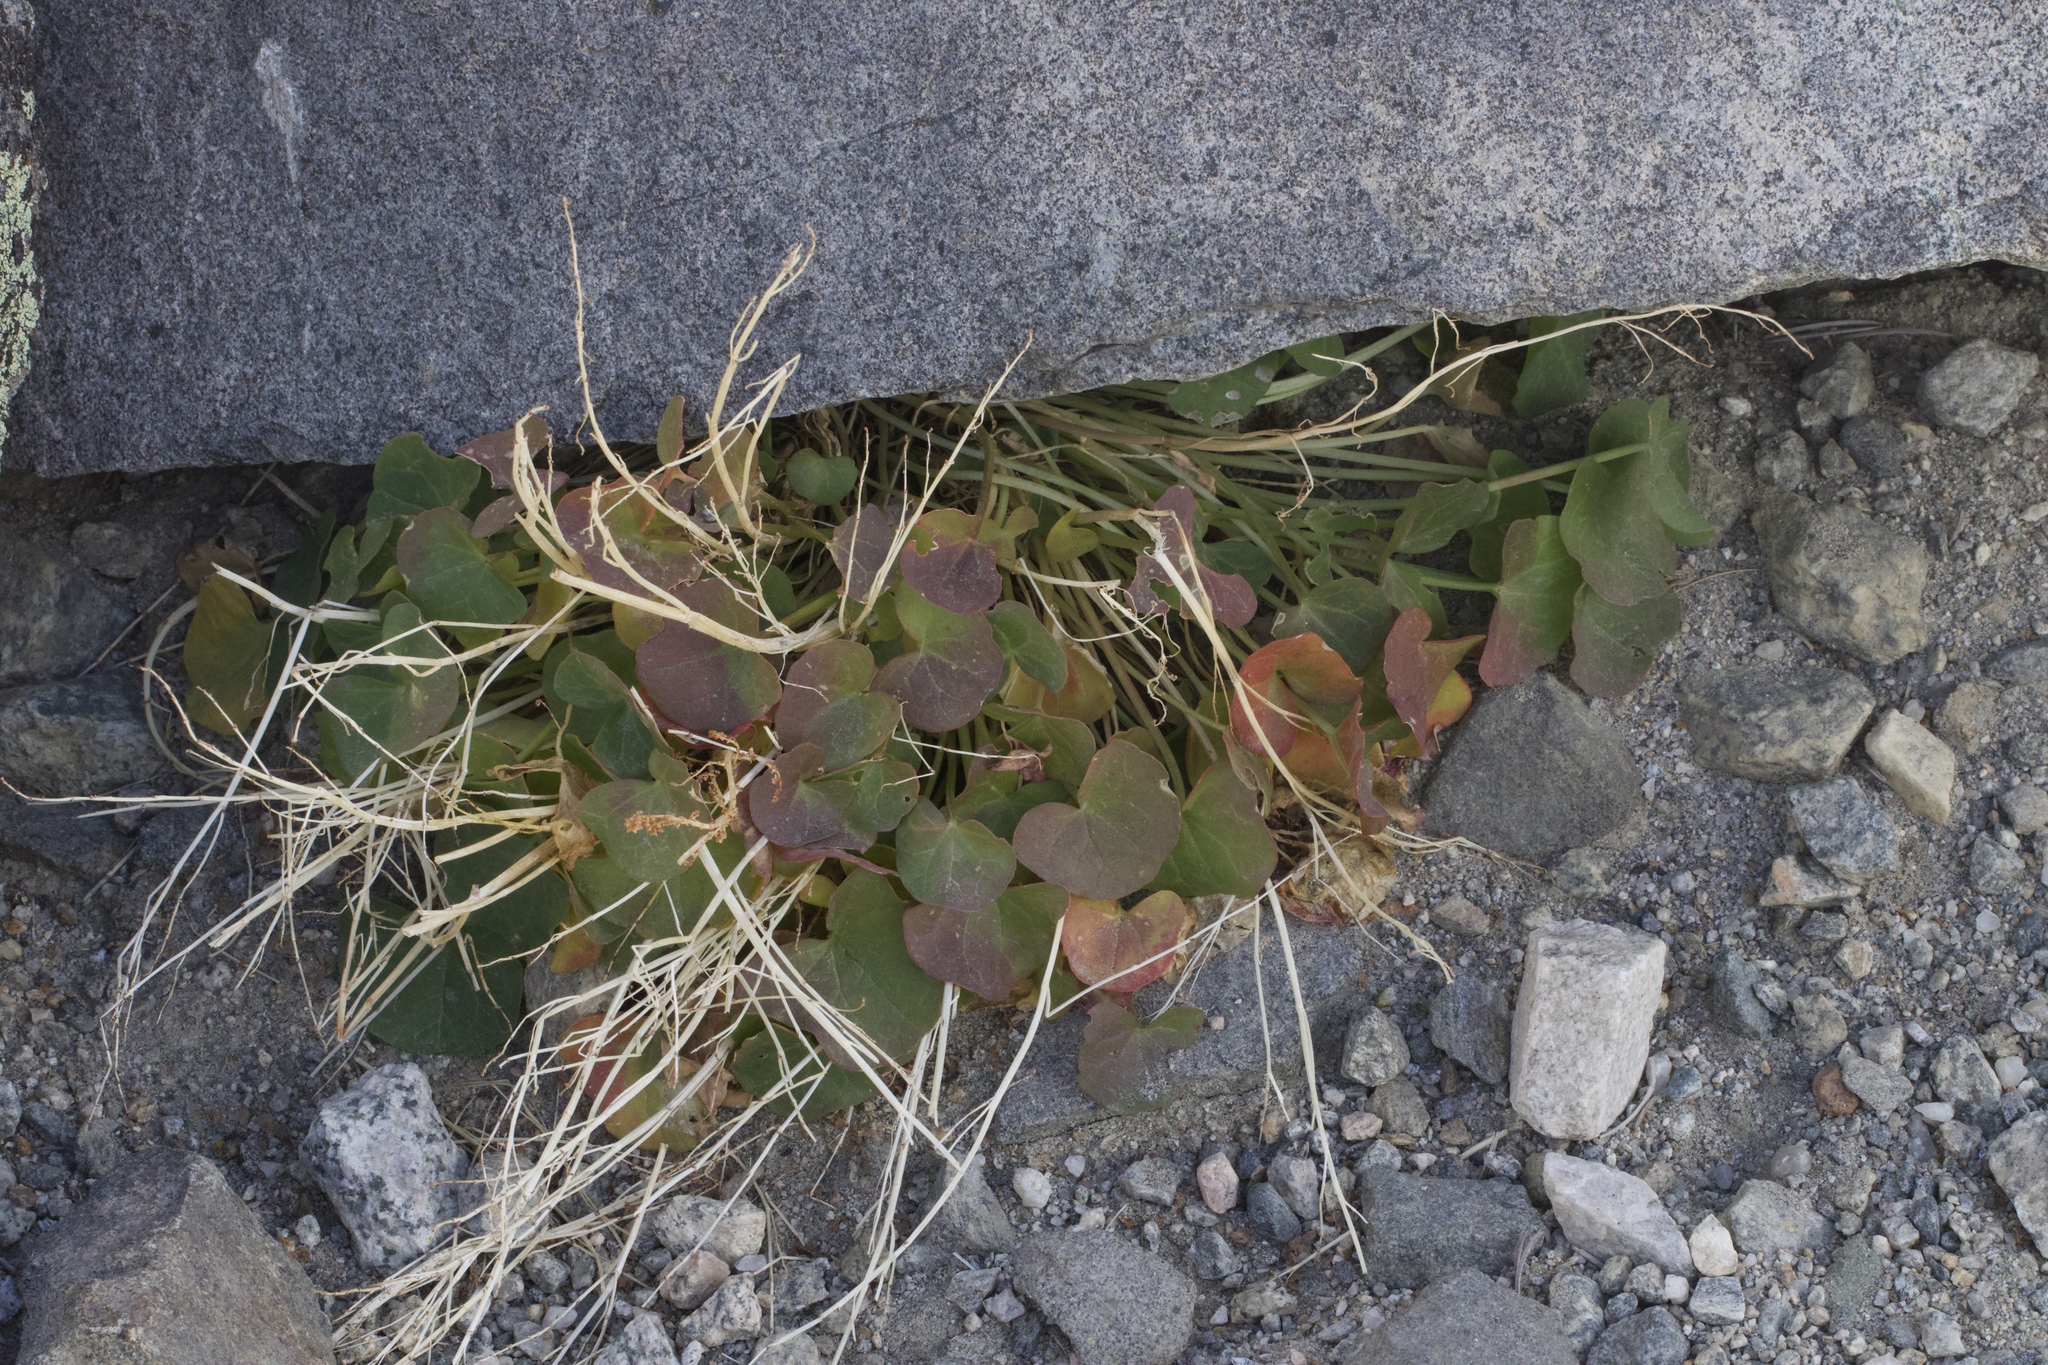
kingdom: Plantae
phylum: Tracheophyta
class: Magnoliopsida
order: Caryophyllales
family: Polygonaceae
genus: Oxyria
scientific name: Oxyria digyna
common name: Alpine mountain-sorrel
